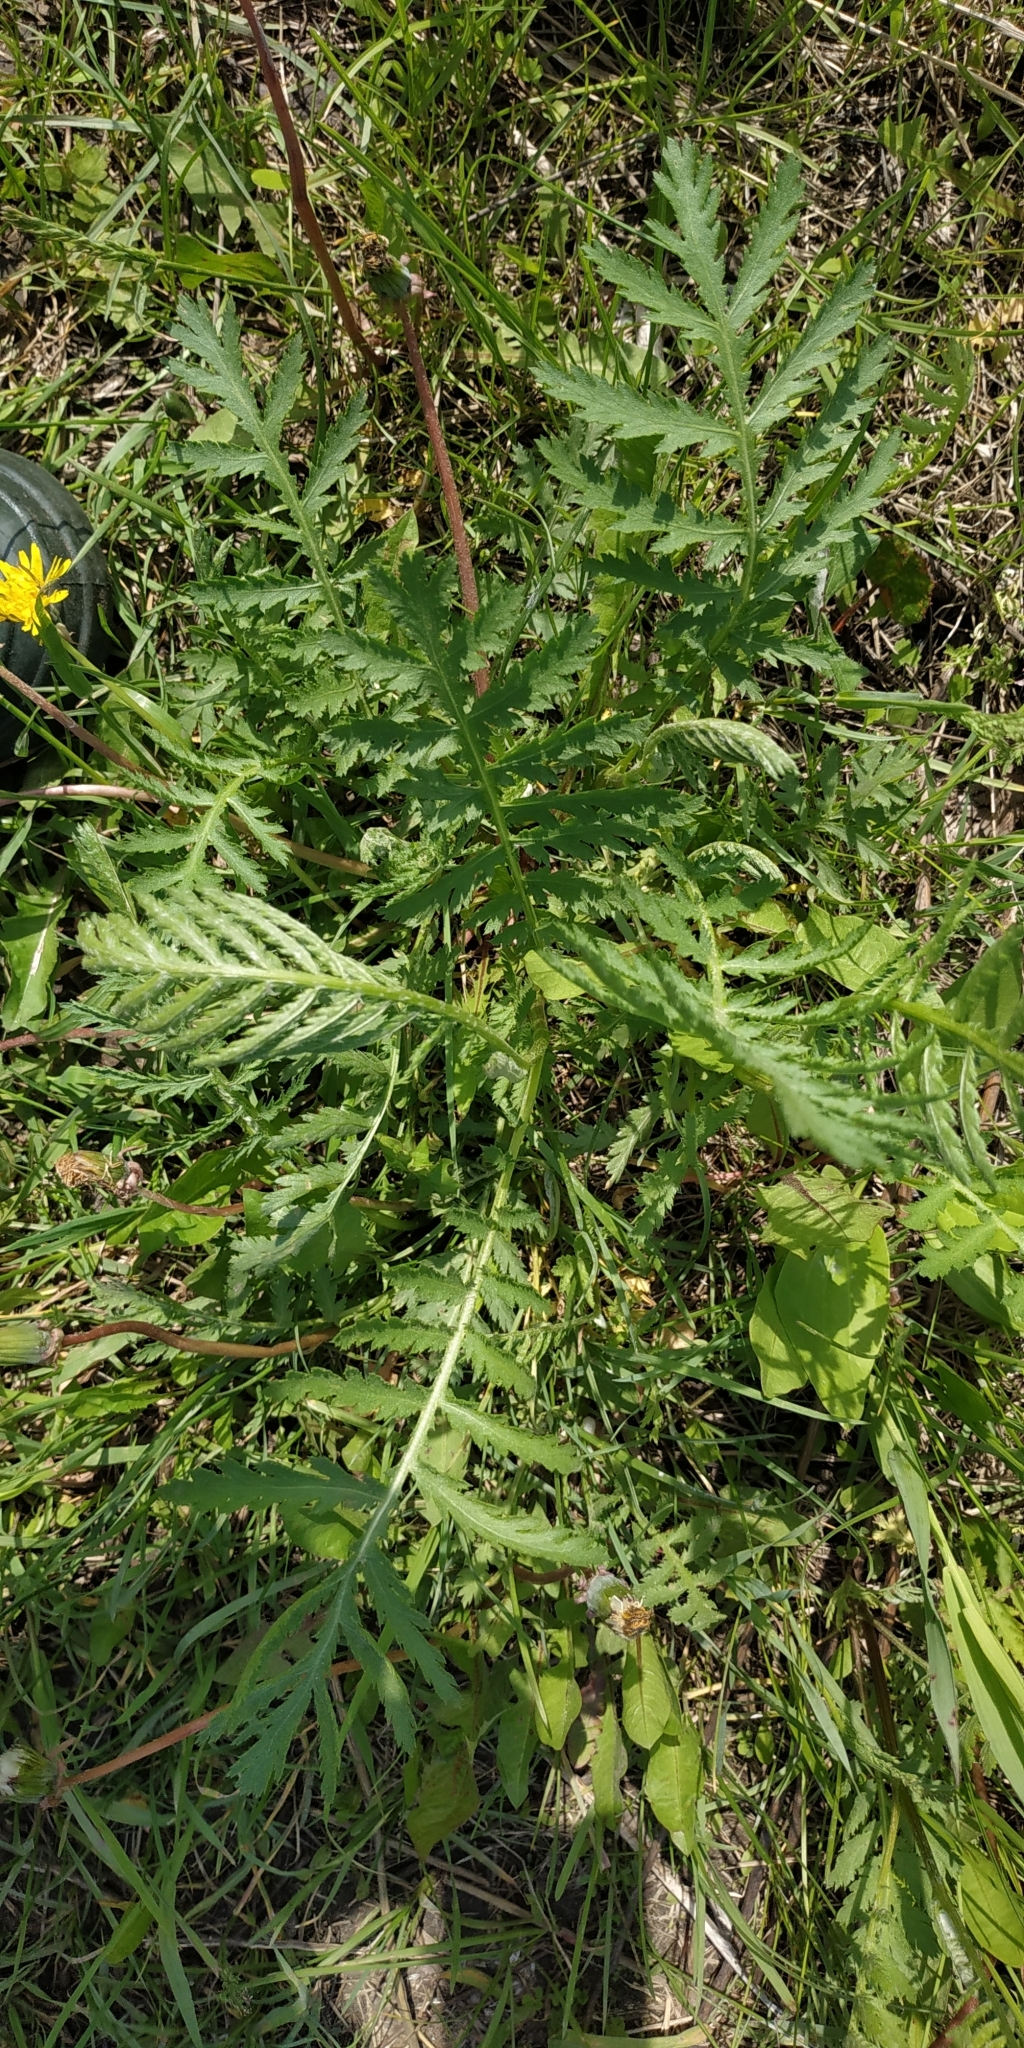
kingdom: Plantae
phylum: Tracheophyta
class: Magnoliopsida
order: Asterales
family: Asteraceae
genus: Tanacetum
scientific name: Tanacetum vulgare
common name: Common tansy
